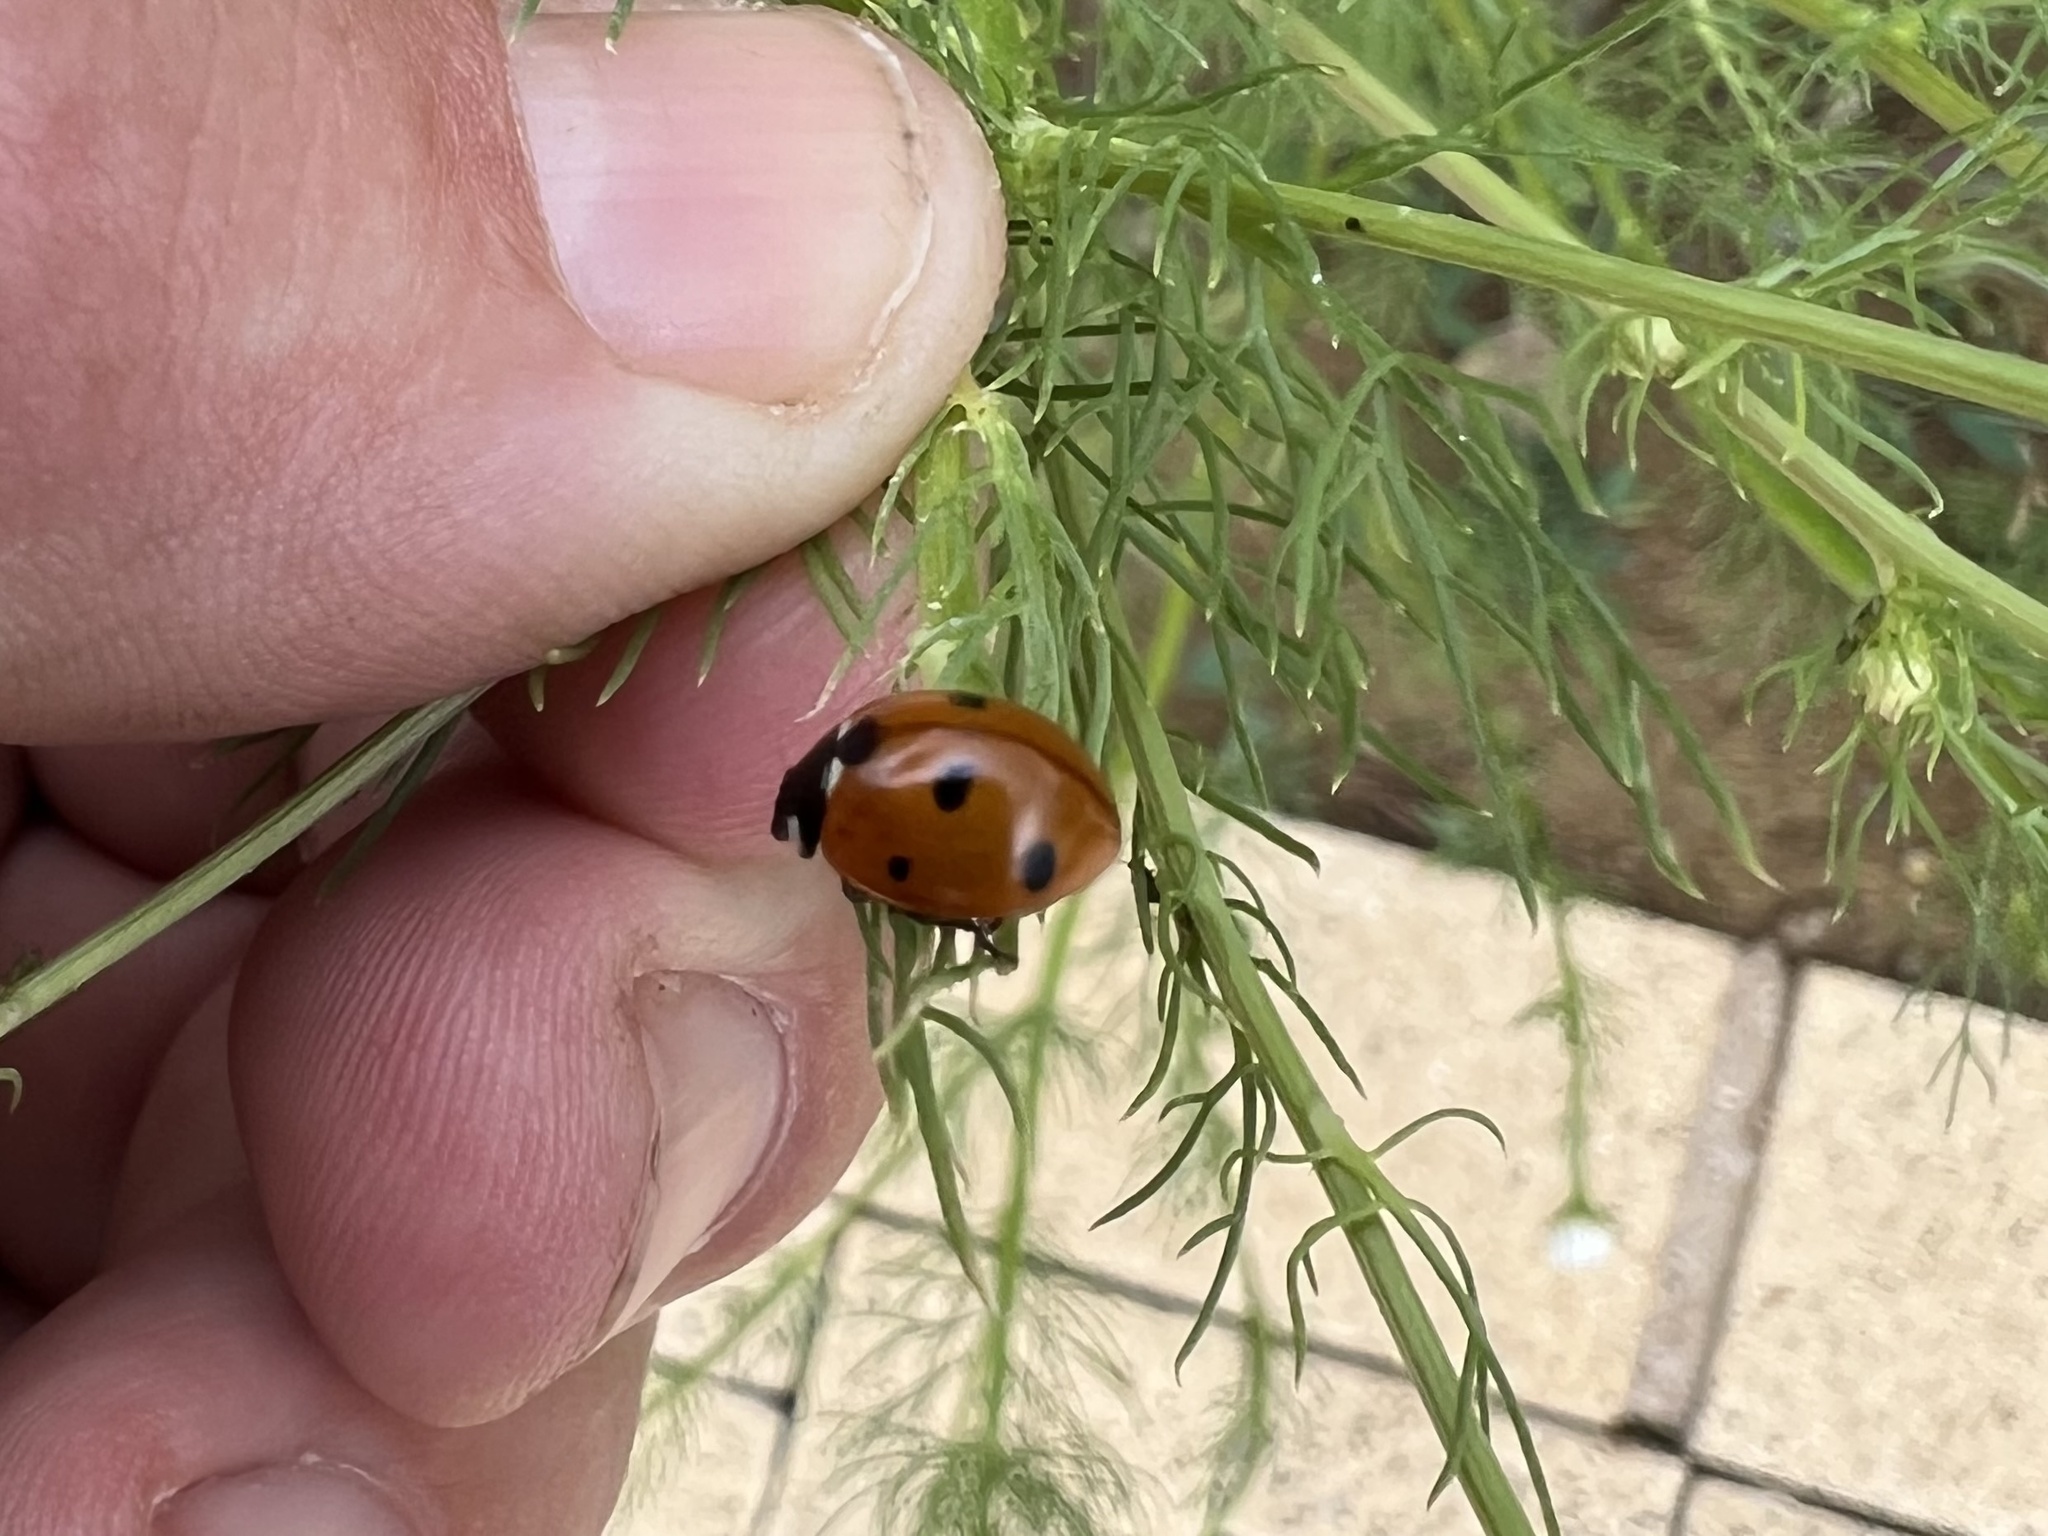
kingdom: Animalia
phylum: Arthropoda
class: Insecta
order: Coleoptera
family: Coccinellidae
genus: Coccinella
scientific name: Coccinella septempunctata
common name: Sevenspotted lady beetle
